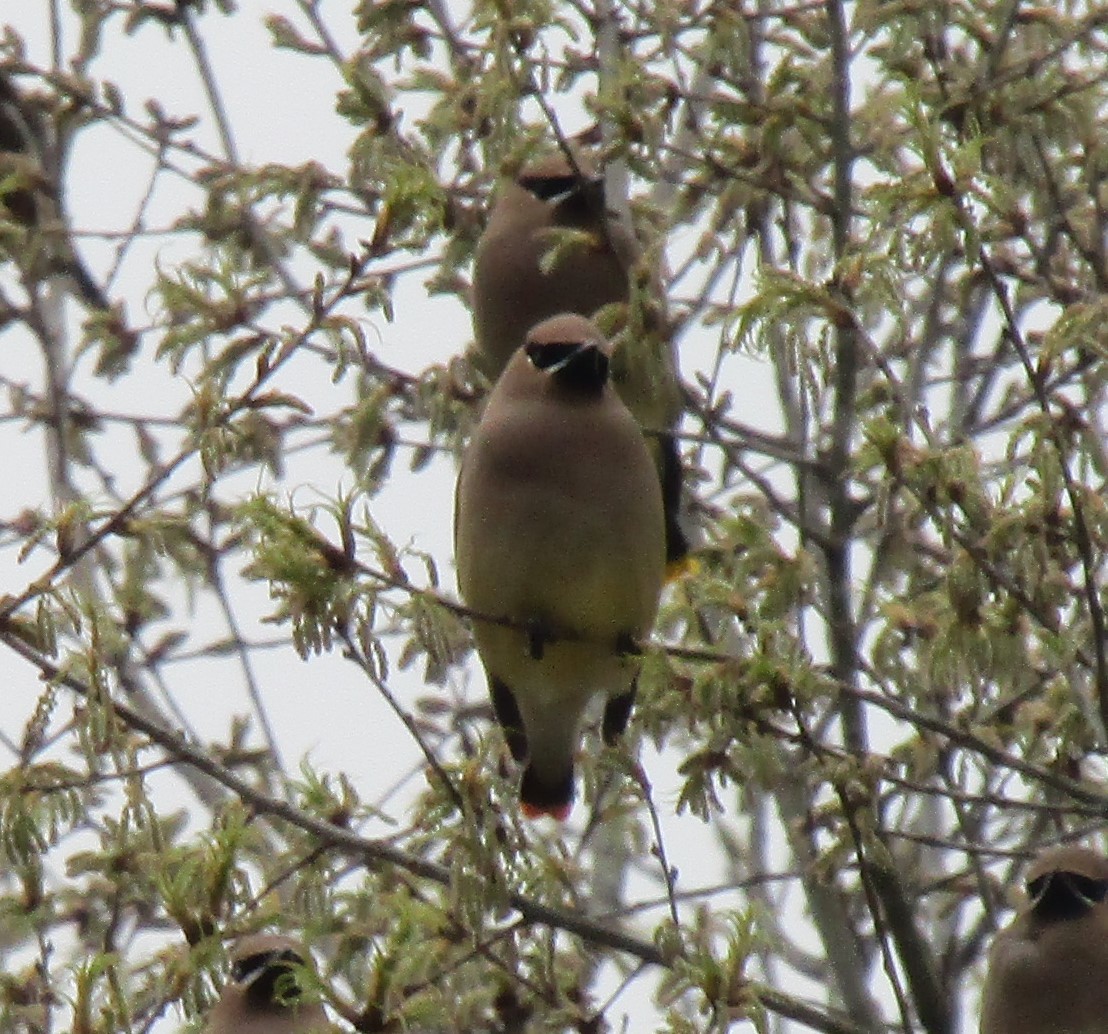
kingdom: Animalia
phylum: Chordata
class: Aves
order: Passeriformes
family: Bombycillidae
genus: Bombycilla
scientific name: Bombycilla cedrorum
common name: Cedar waxwing
